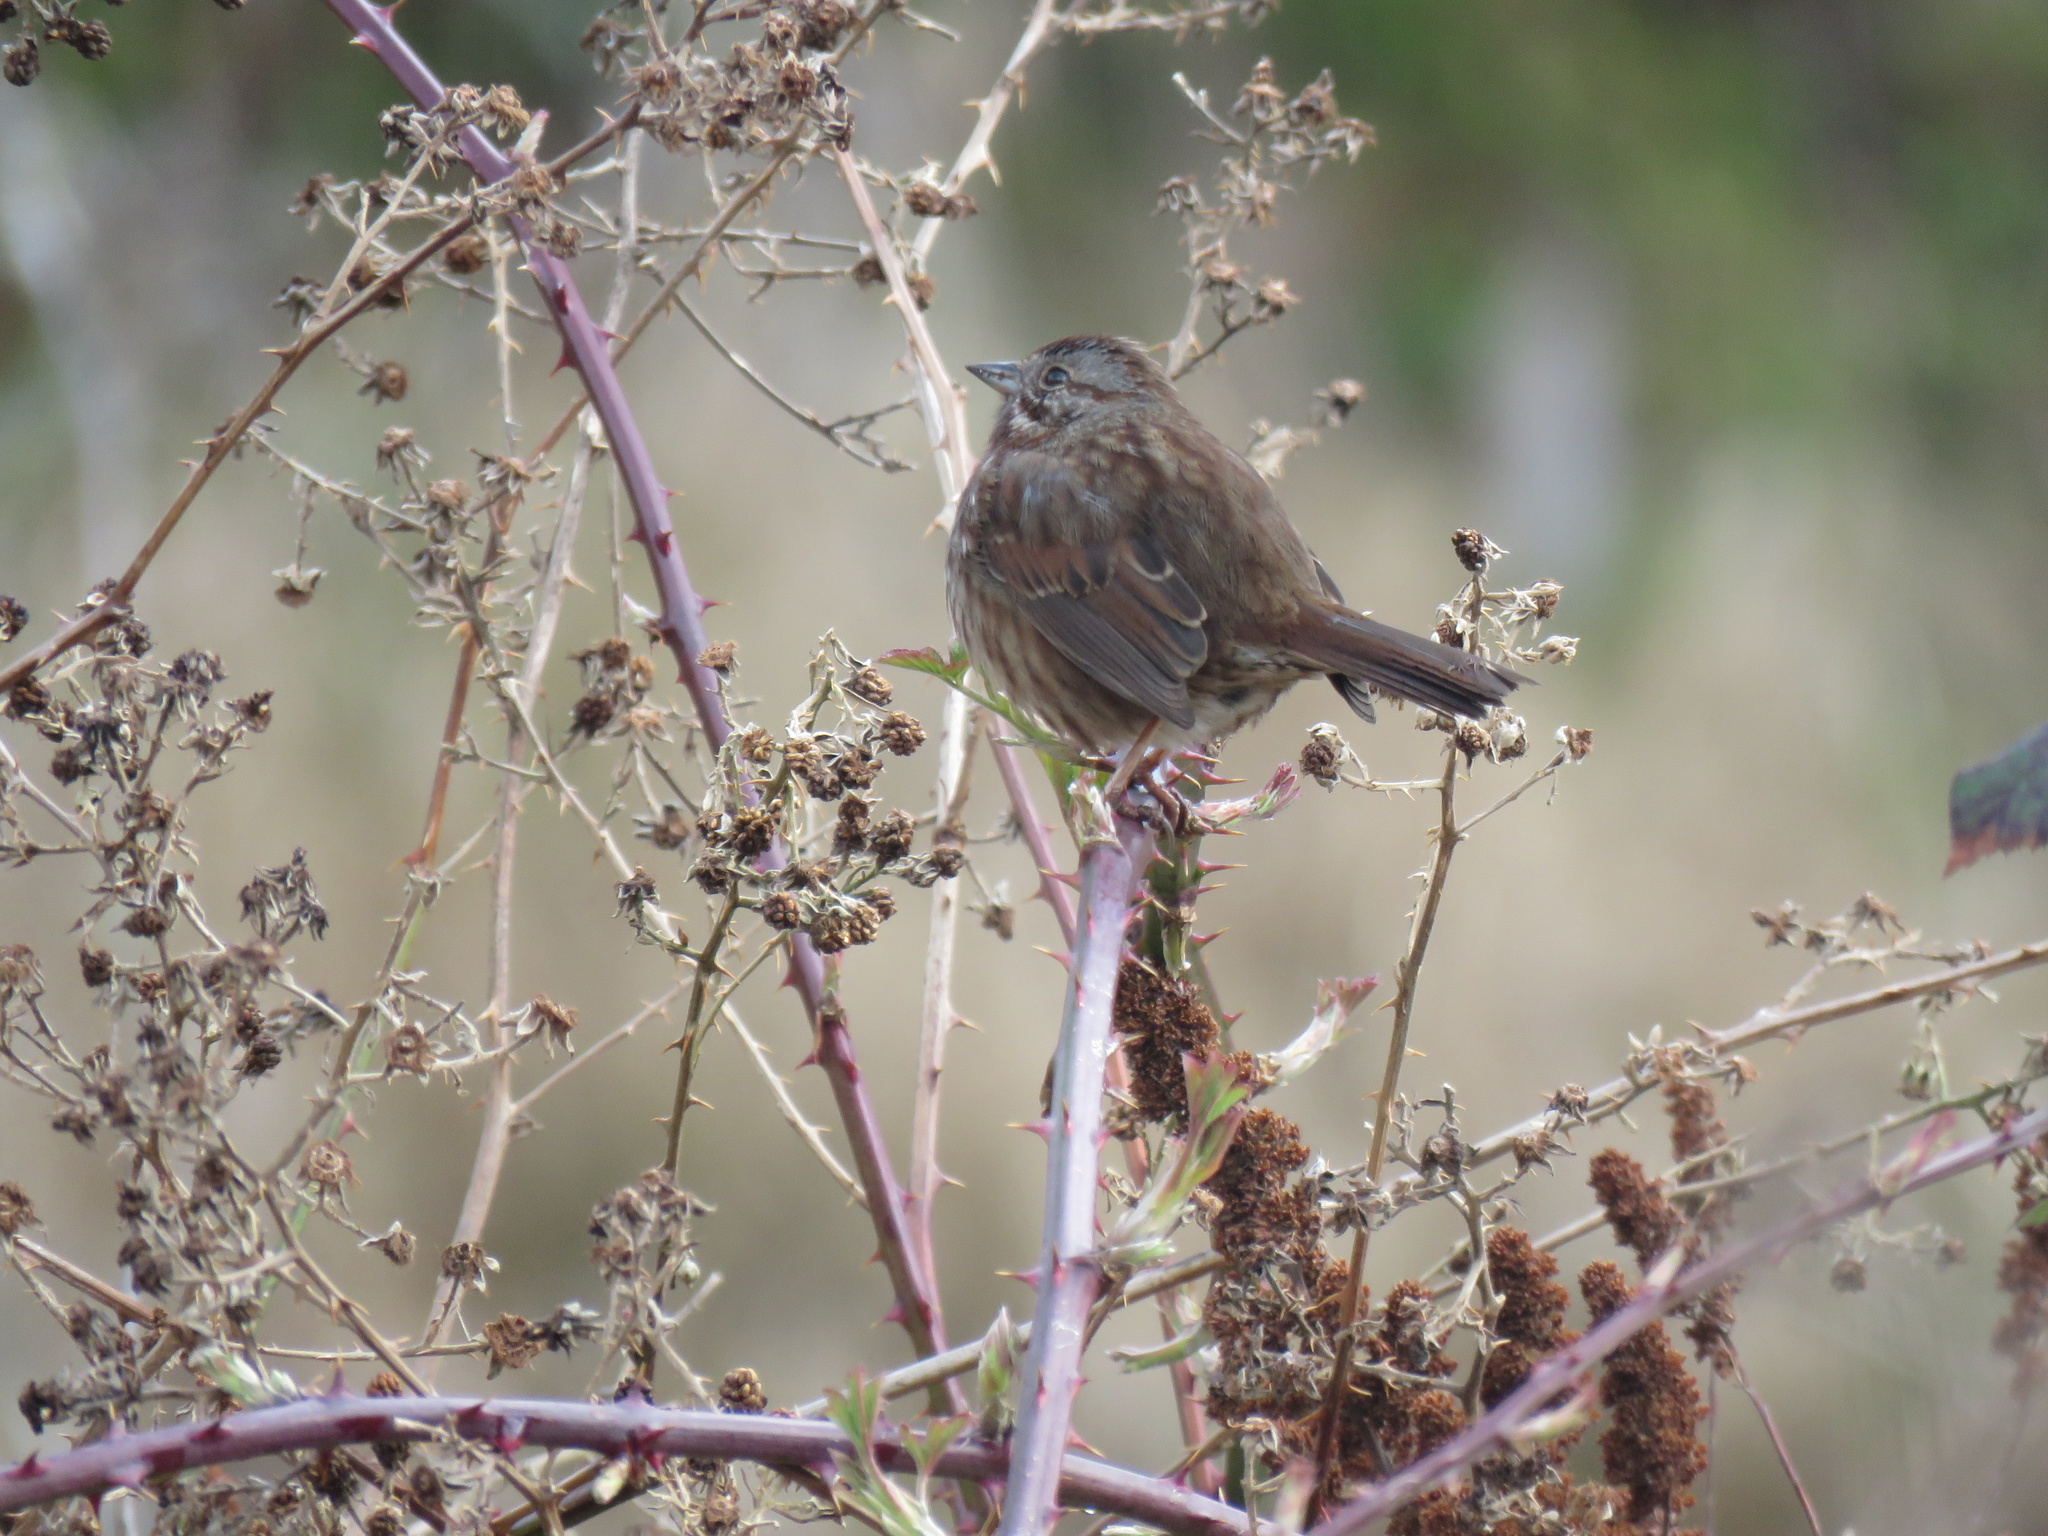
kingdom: Animalia
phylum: Chordata
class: Aves
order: Passeriformes
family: Passerellidae
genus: Melospiza
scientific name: Melospiza melodia
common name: Song sparrow
